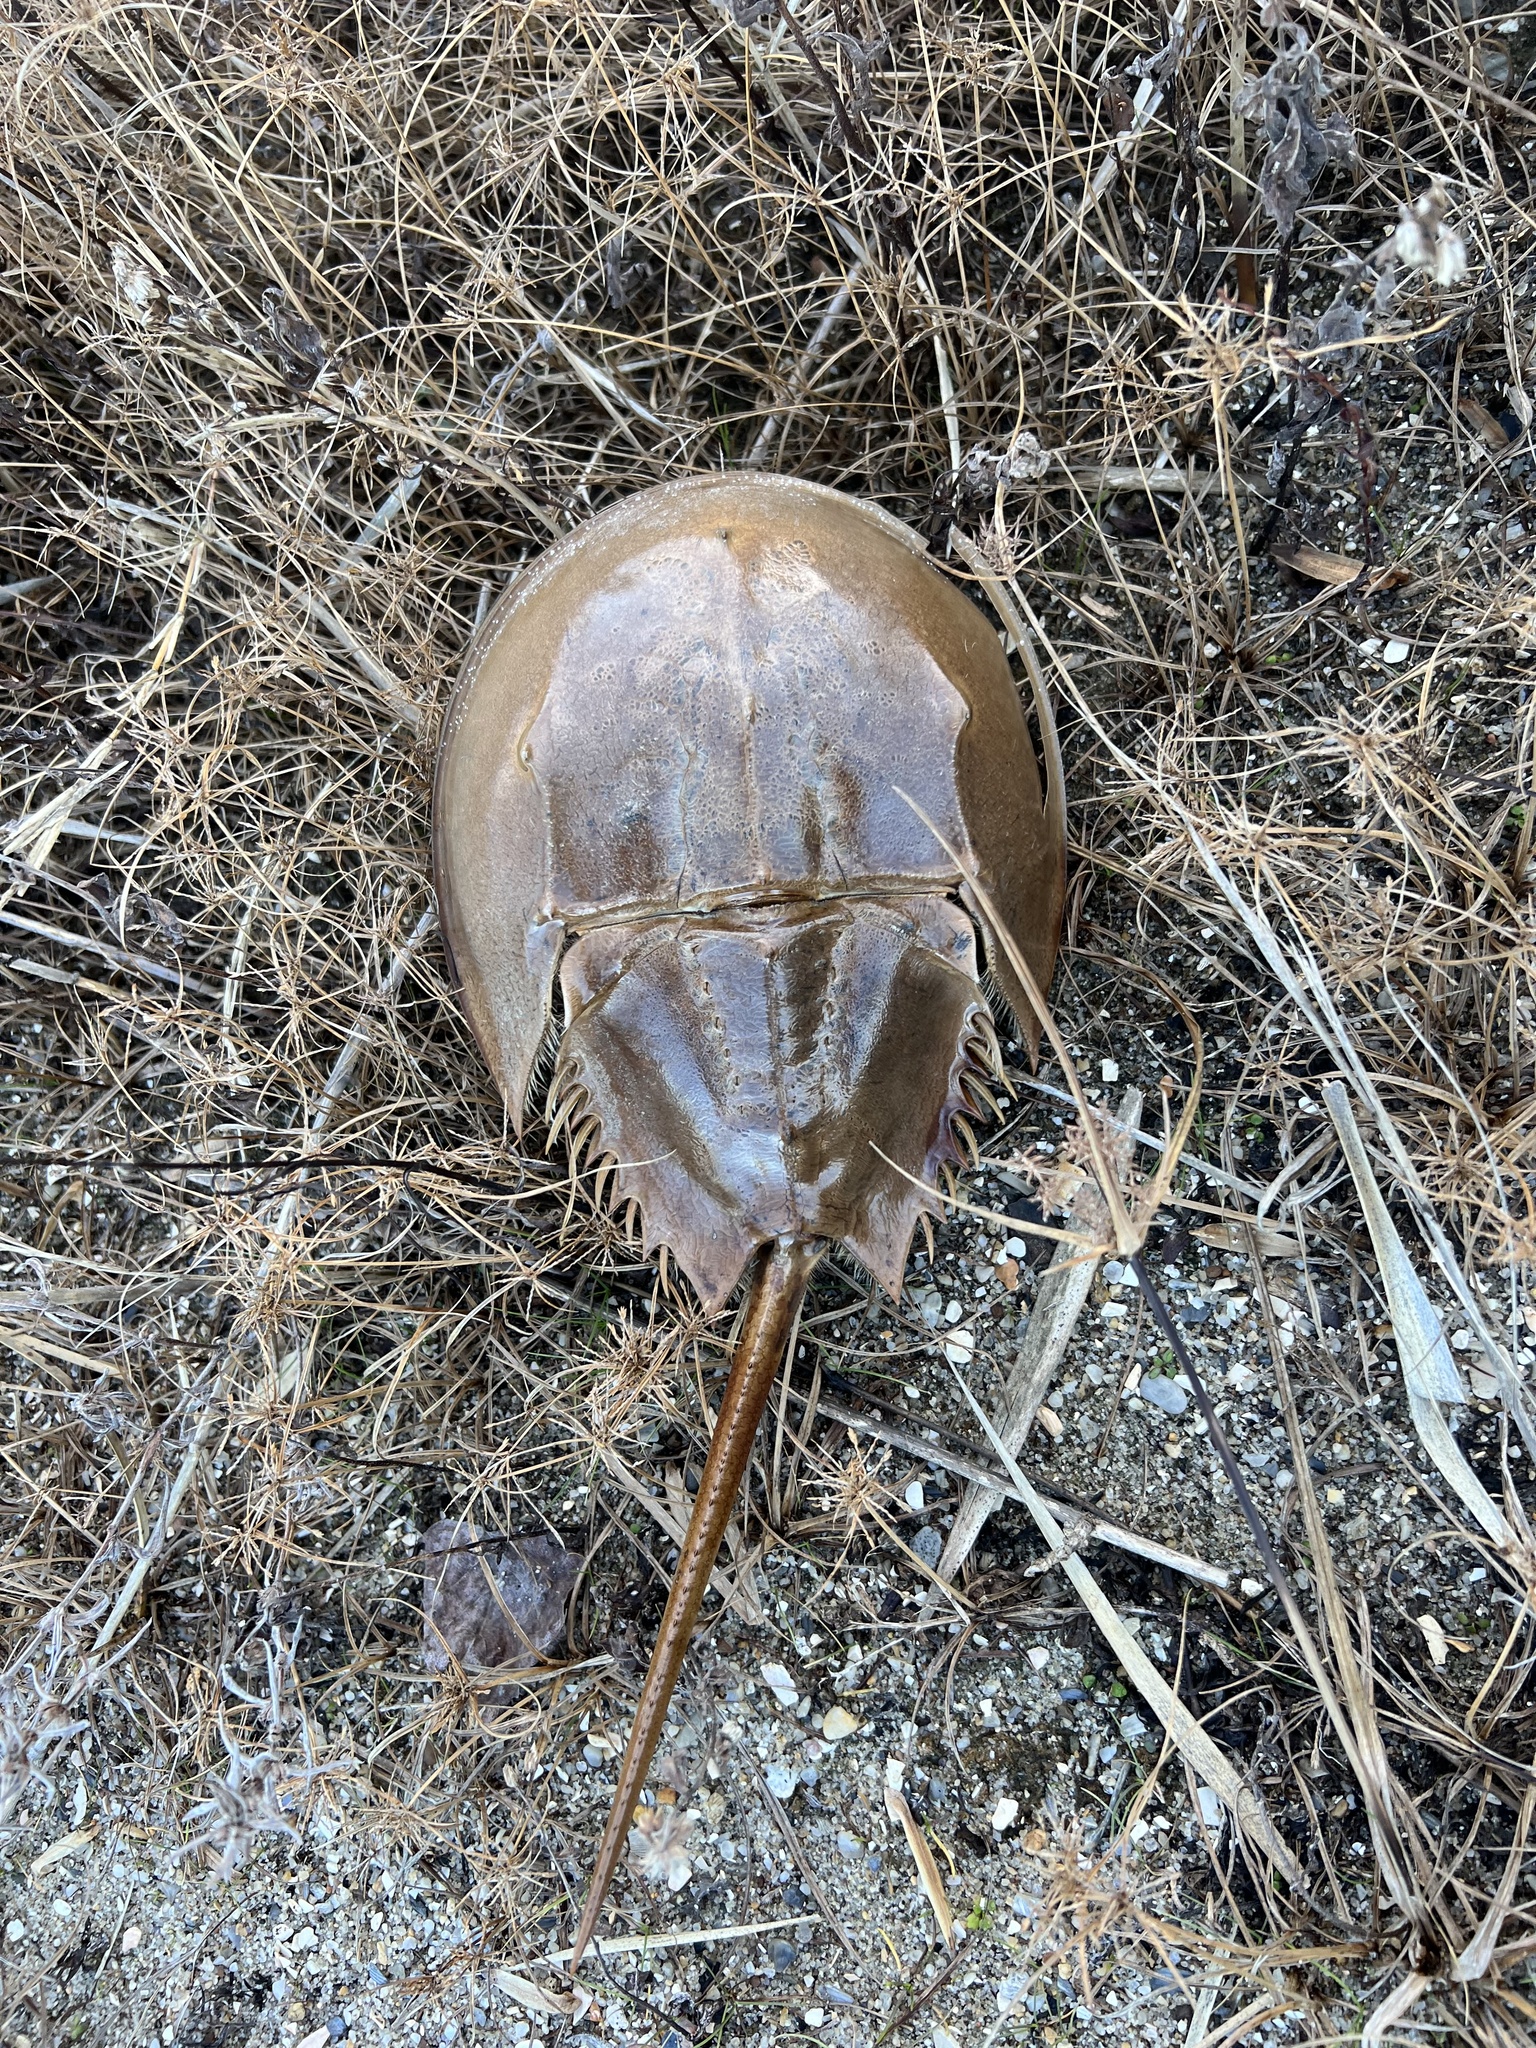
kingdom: Animalia
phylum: Arthropoda
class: Merostomata
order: Xiphosurida
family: Limulidae
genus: Limulus
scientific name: Limulus polyphemus
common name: Horseshoe crab
